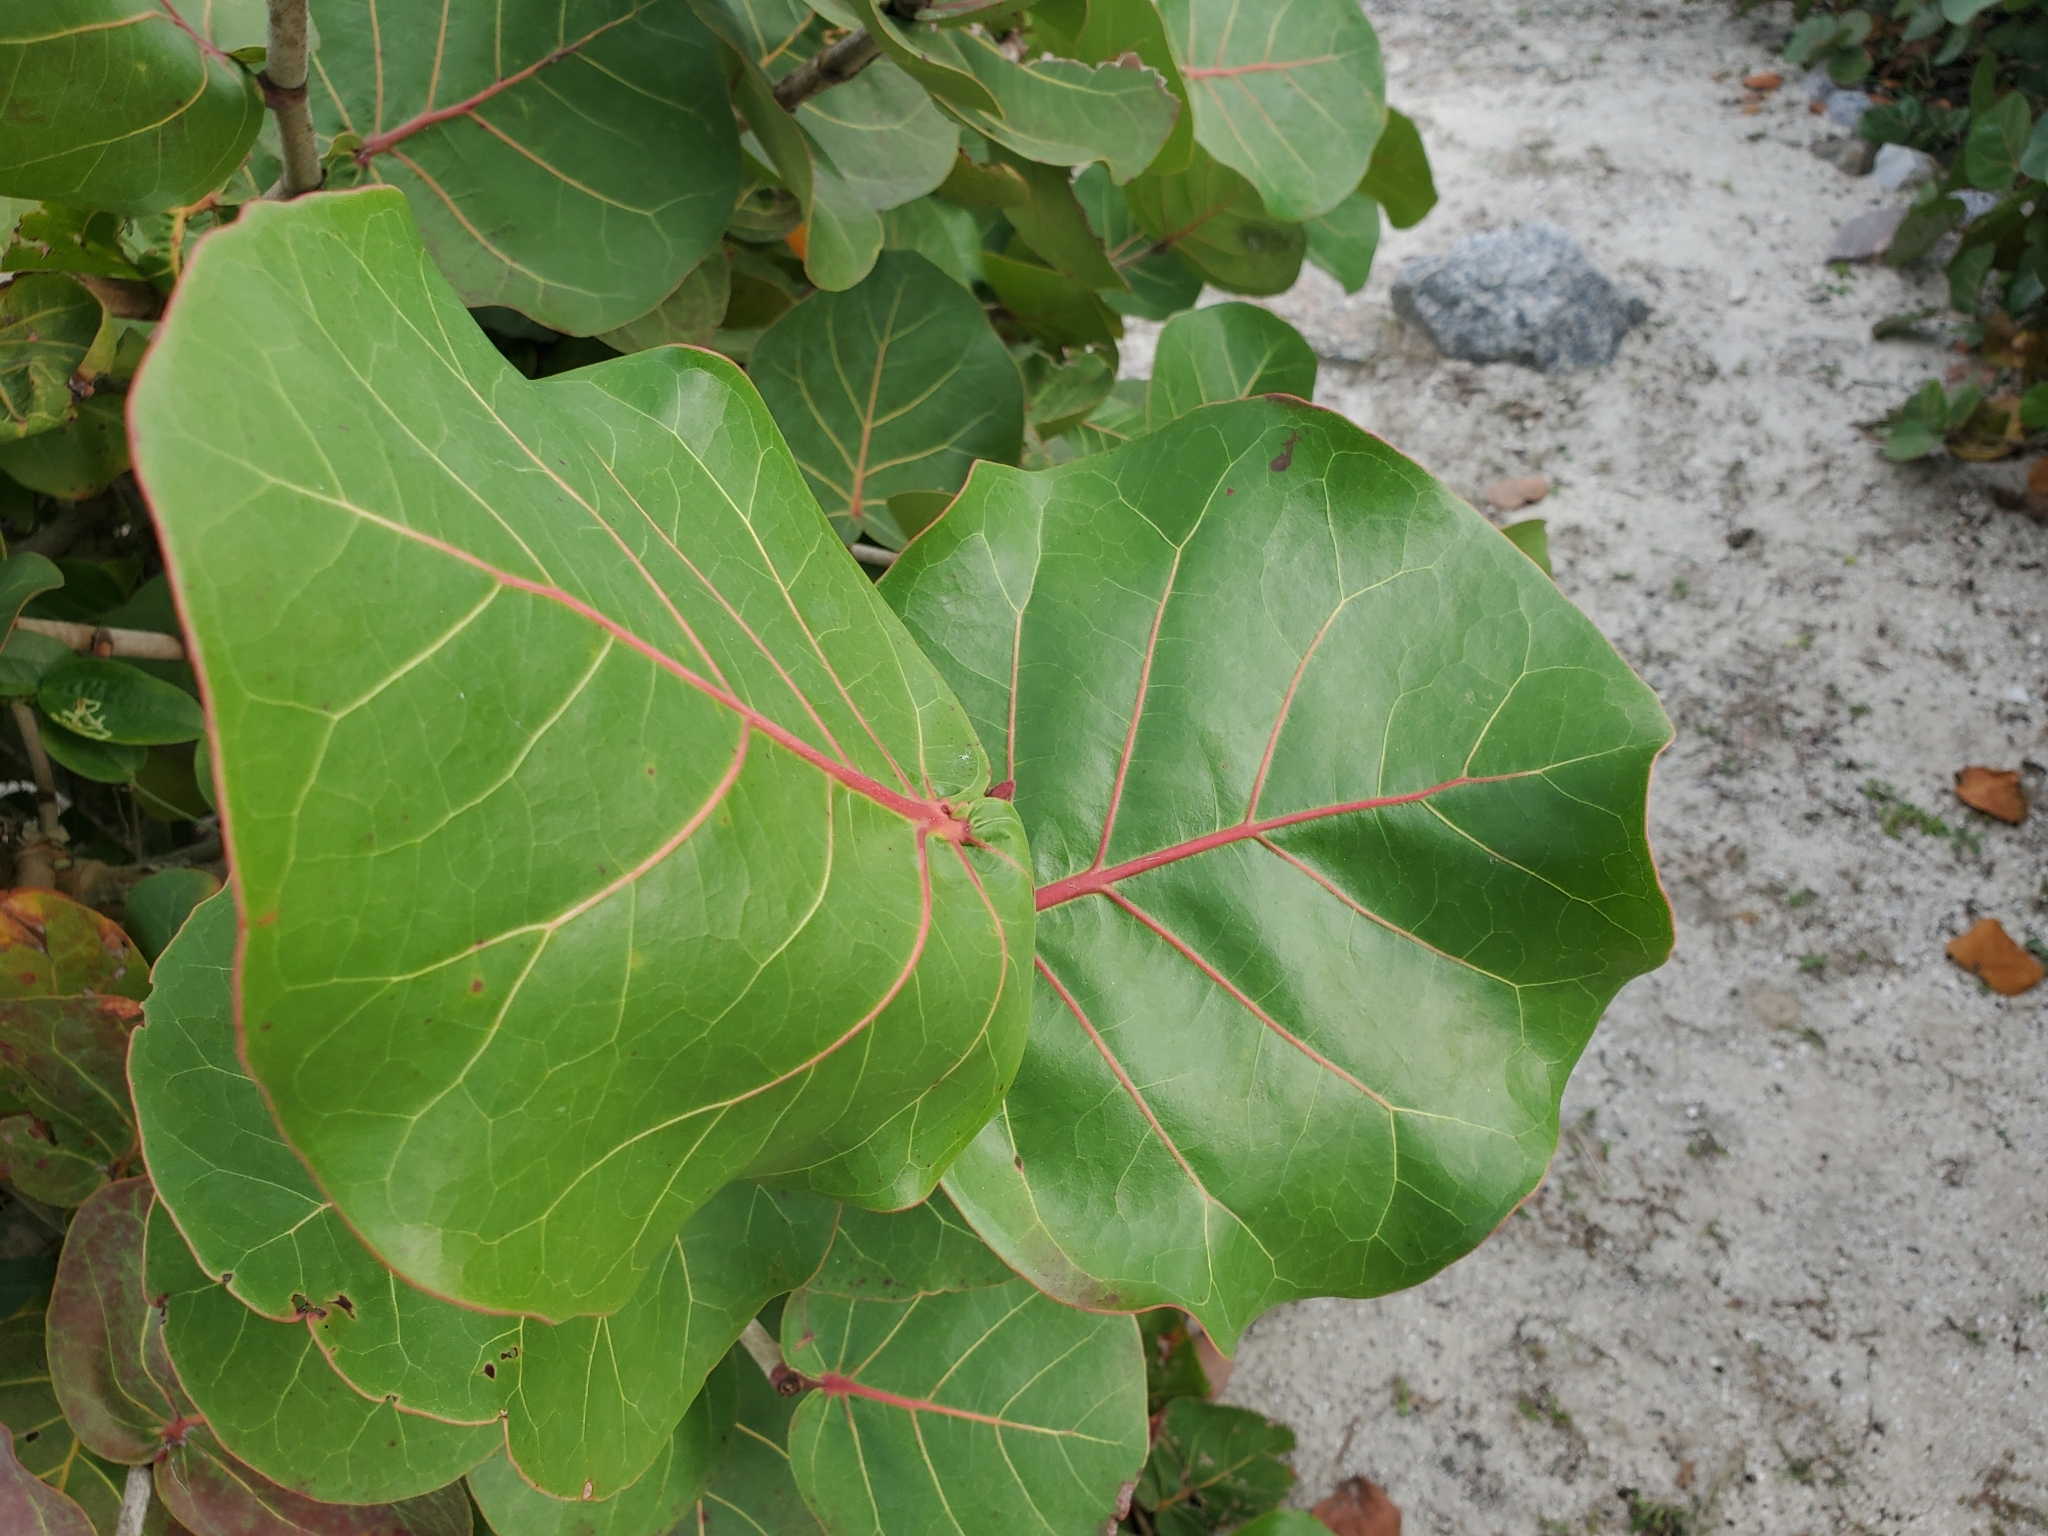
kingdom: Plantae
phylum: Tracheophyta
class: Magnoliopsida
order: Caryophyllales
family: Polygonaceae
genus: Coccoloba
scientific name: Coccoloba uvifera
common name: Seagrape
